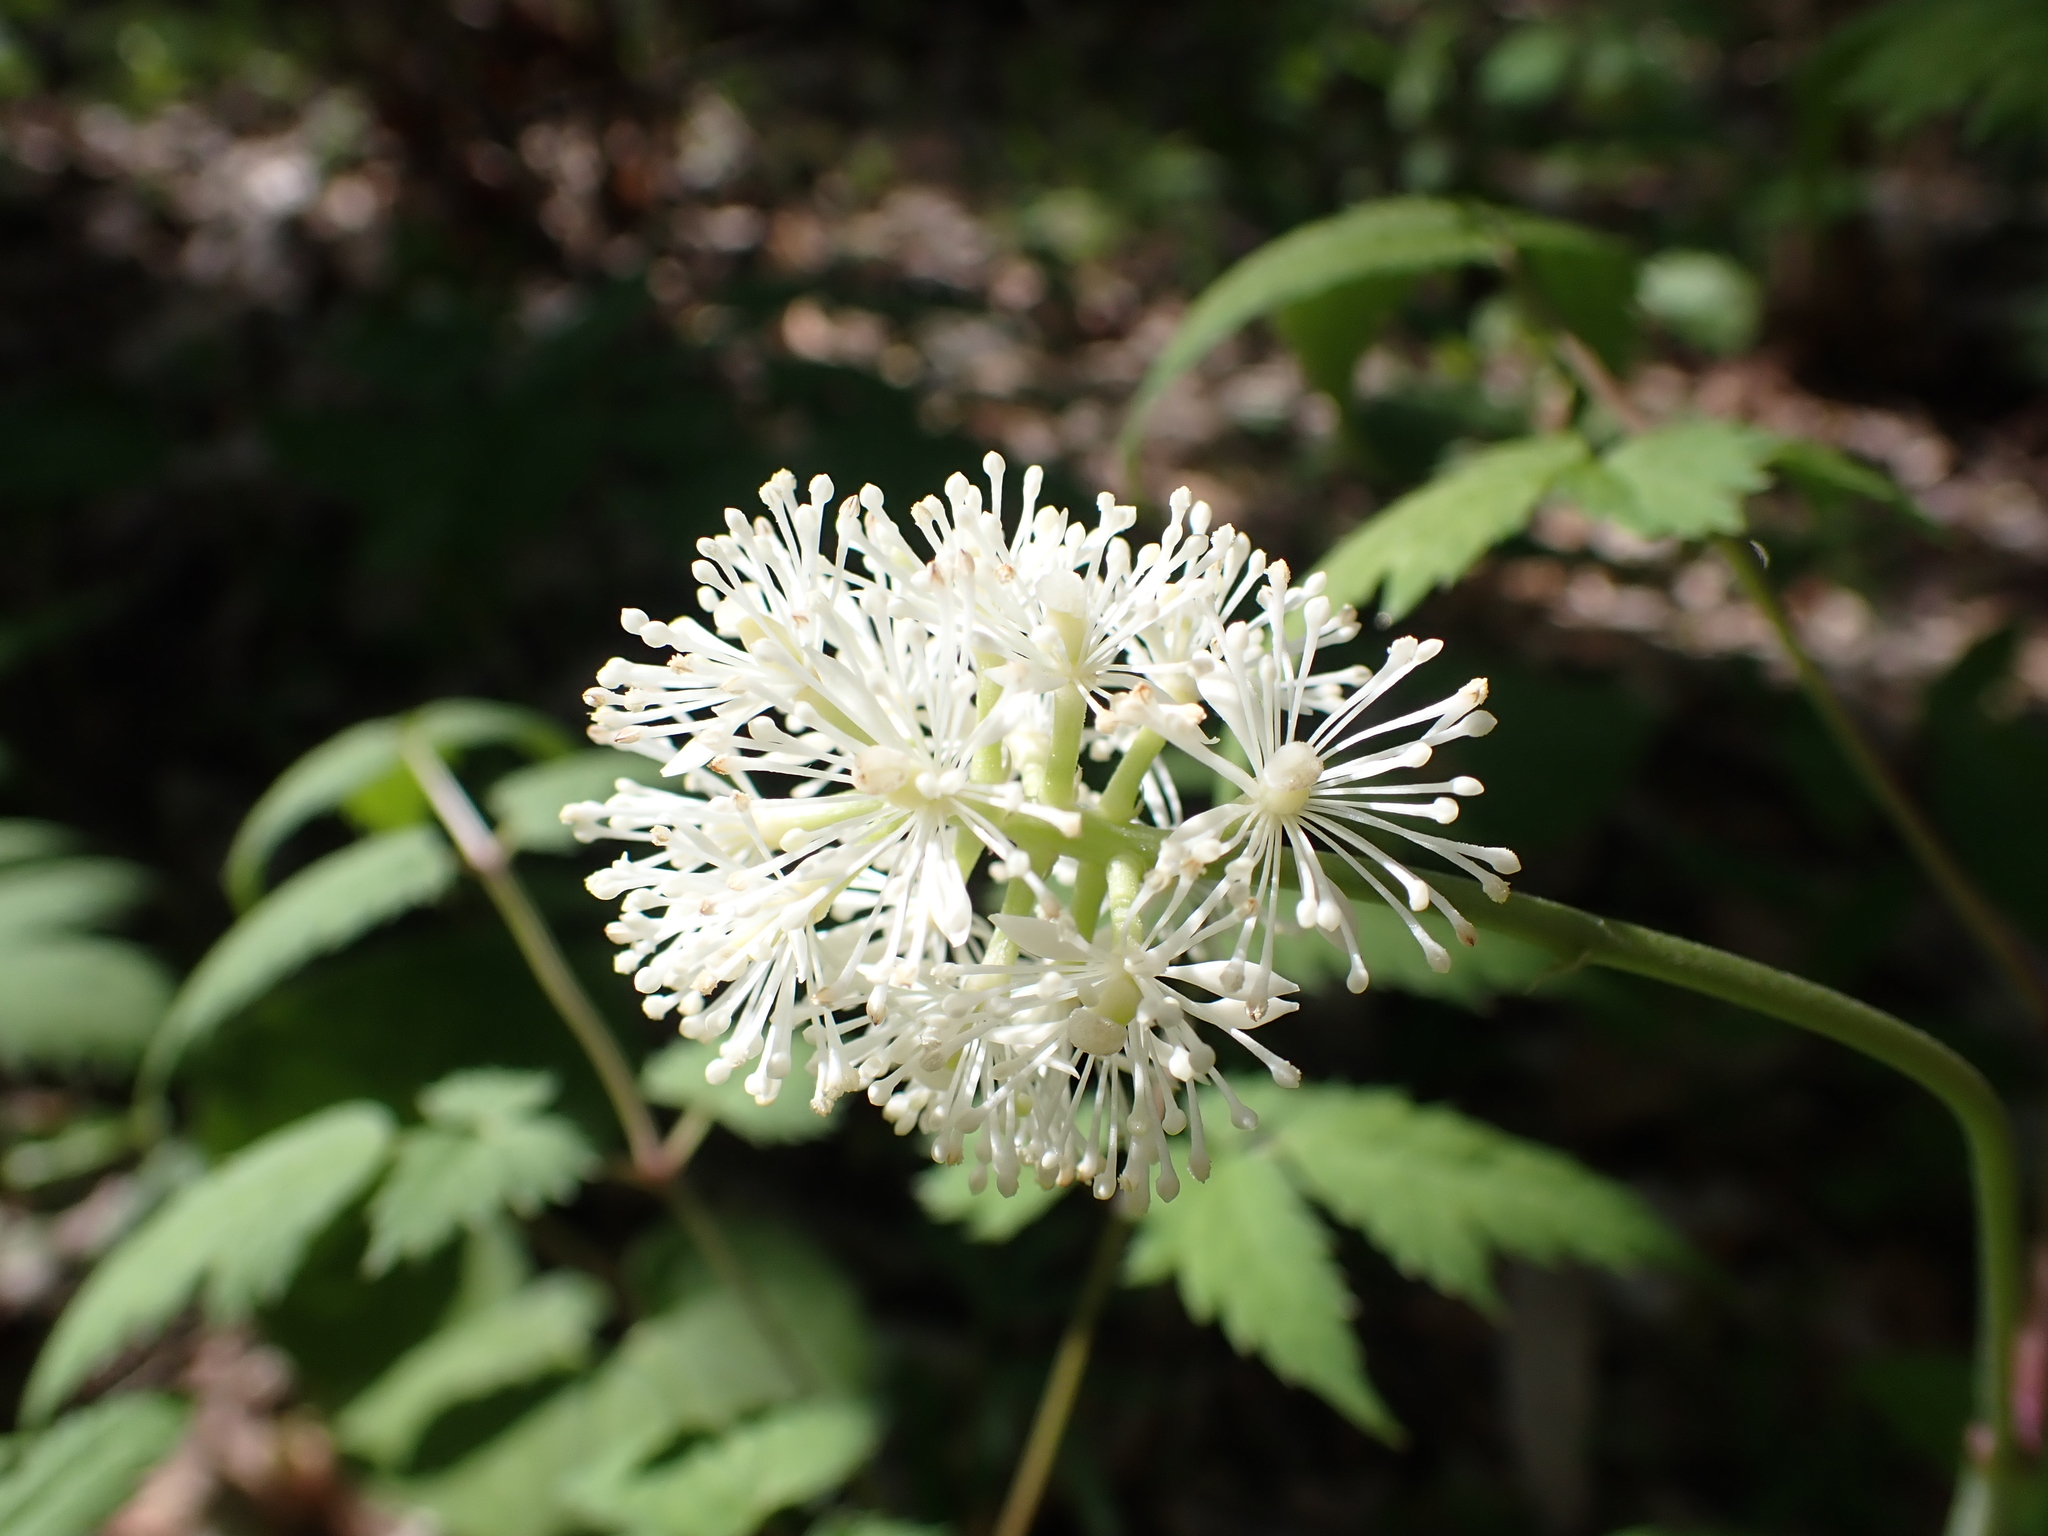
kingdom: Plantae
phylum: Tracheophyta
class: Magnoliopsida
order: Ranunculales
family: Ranunculaceae
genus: Actaea
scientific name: Actaea pachypoda
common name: Doll's-eyes
